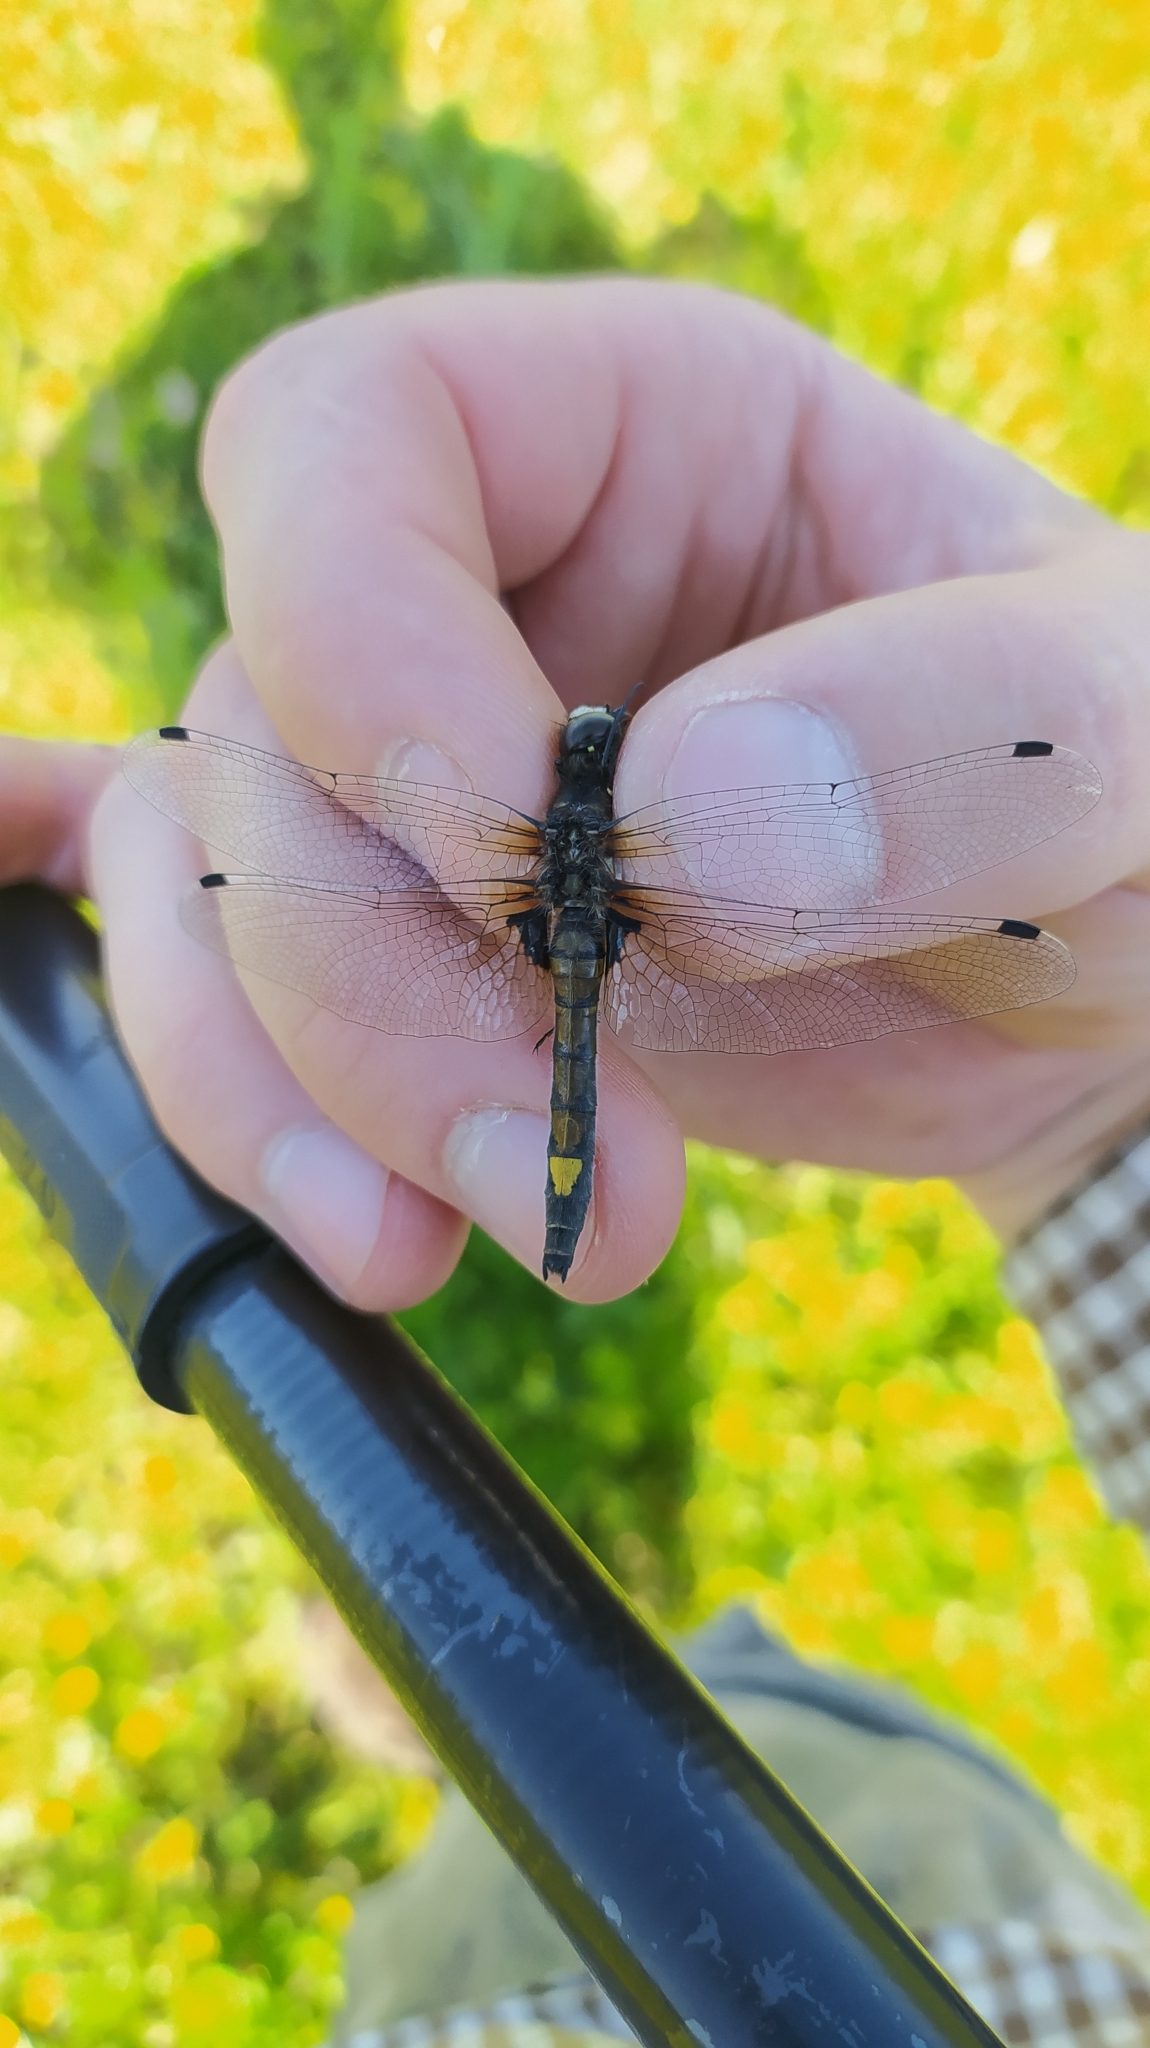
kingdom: Animalia
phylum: Arthropoda
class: Insecta
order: Odonata
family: Libellulidae
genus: Leucorrhinia
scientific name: Leucorrhinia pectoralis
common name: Yellow-spotted whiteface
